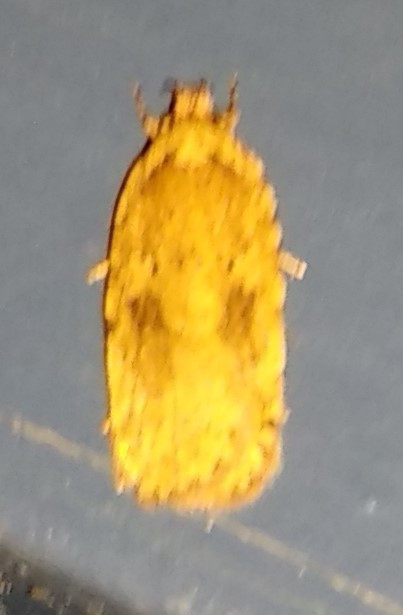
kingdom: Animalia
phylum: Arthropoda
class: Insecta
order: Lepidoptera
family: Depressariidae
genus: Agonopterix
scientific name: Agonopterix pulvipennella
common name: Goldenrod leafffolder
